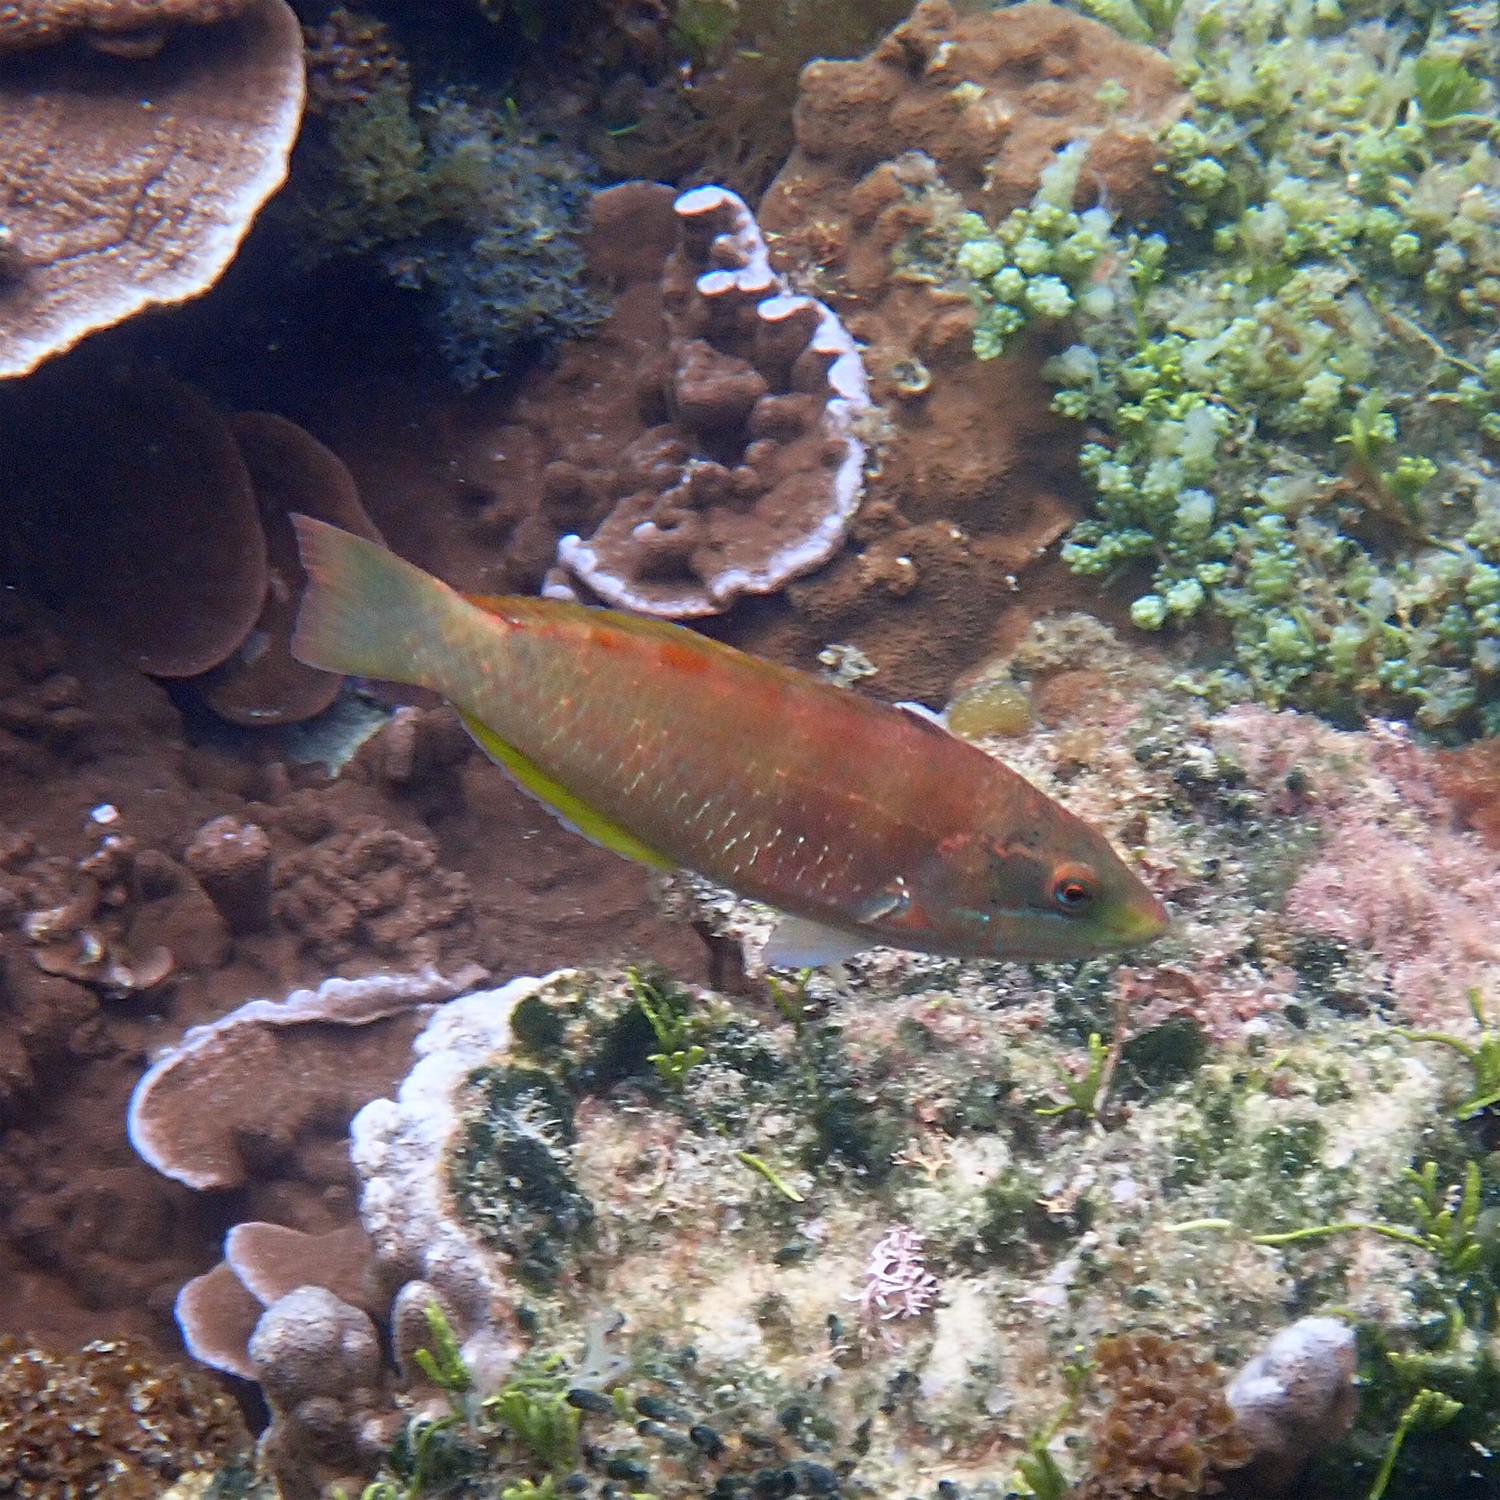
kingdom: Animalia
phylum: Chordata
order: Perciformes
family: Labridae
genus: Pseudolabrus
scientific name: Pseudolabrus luculentus
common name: Luculentus wrasse
